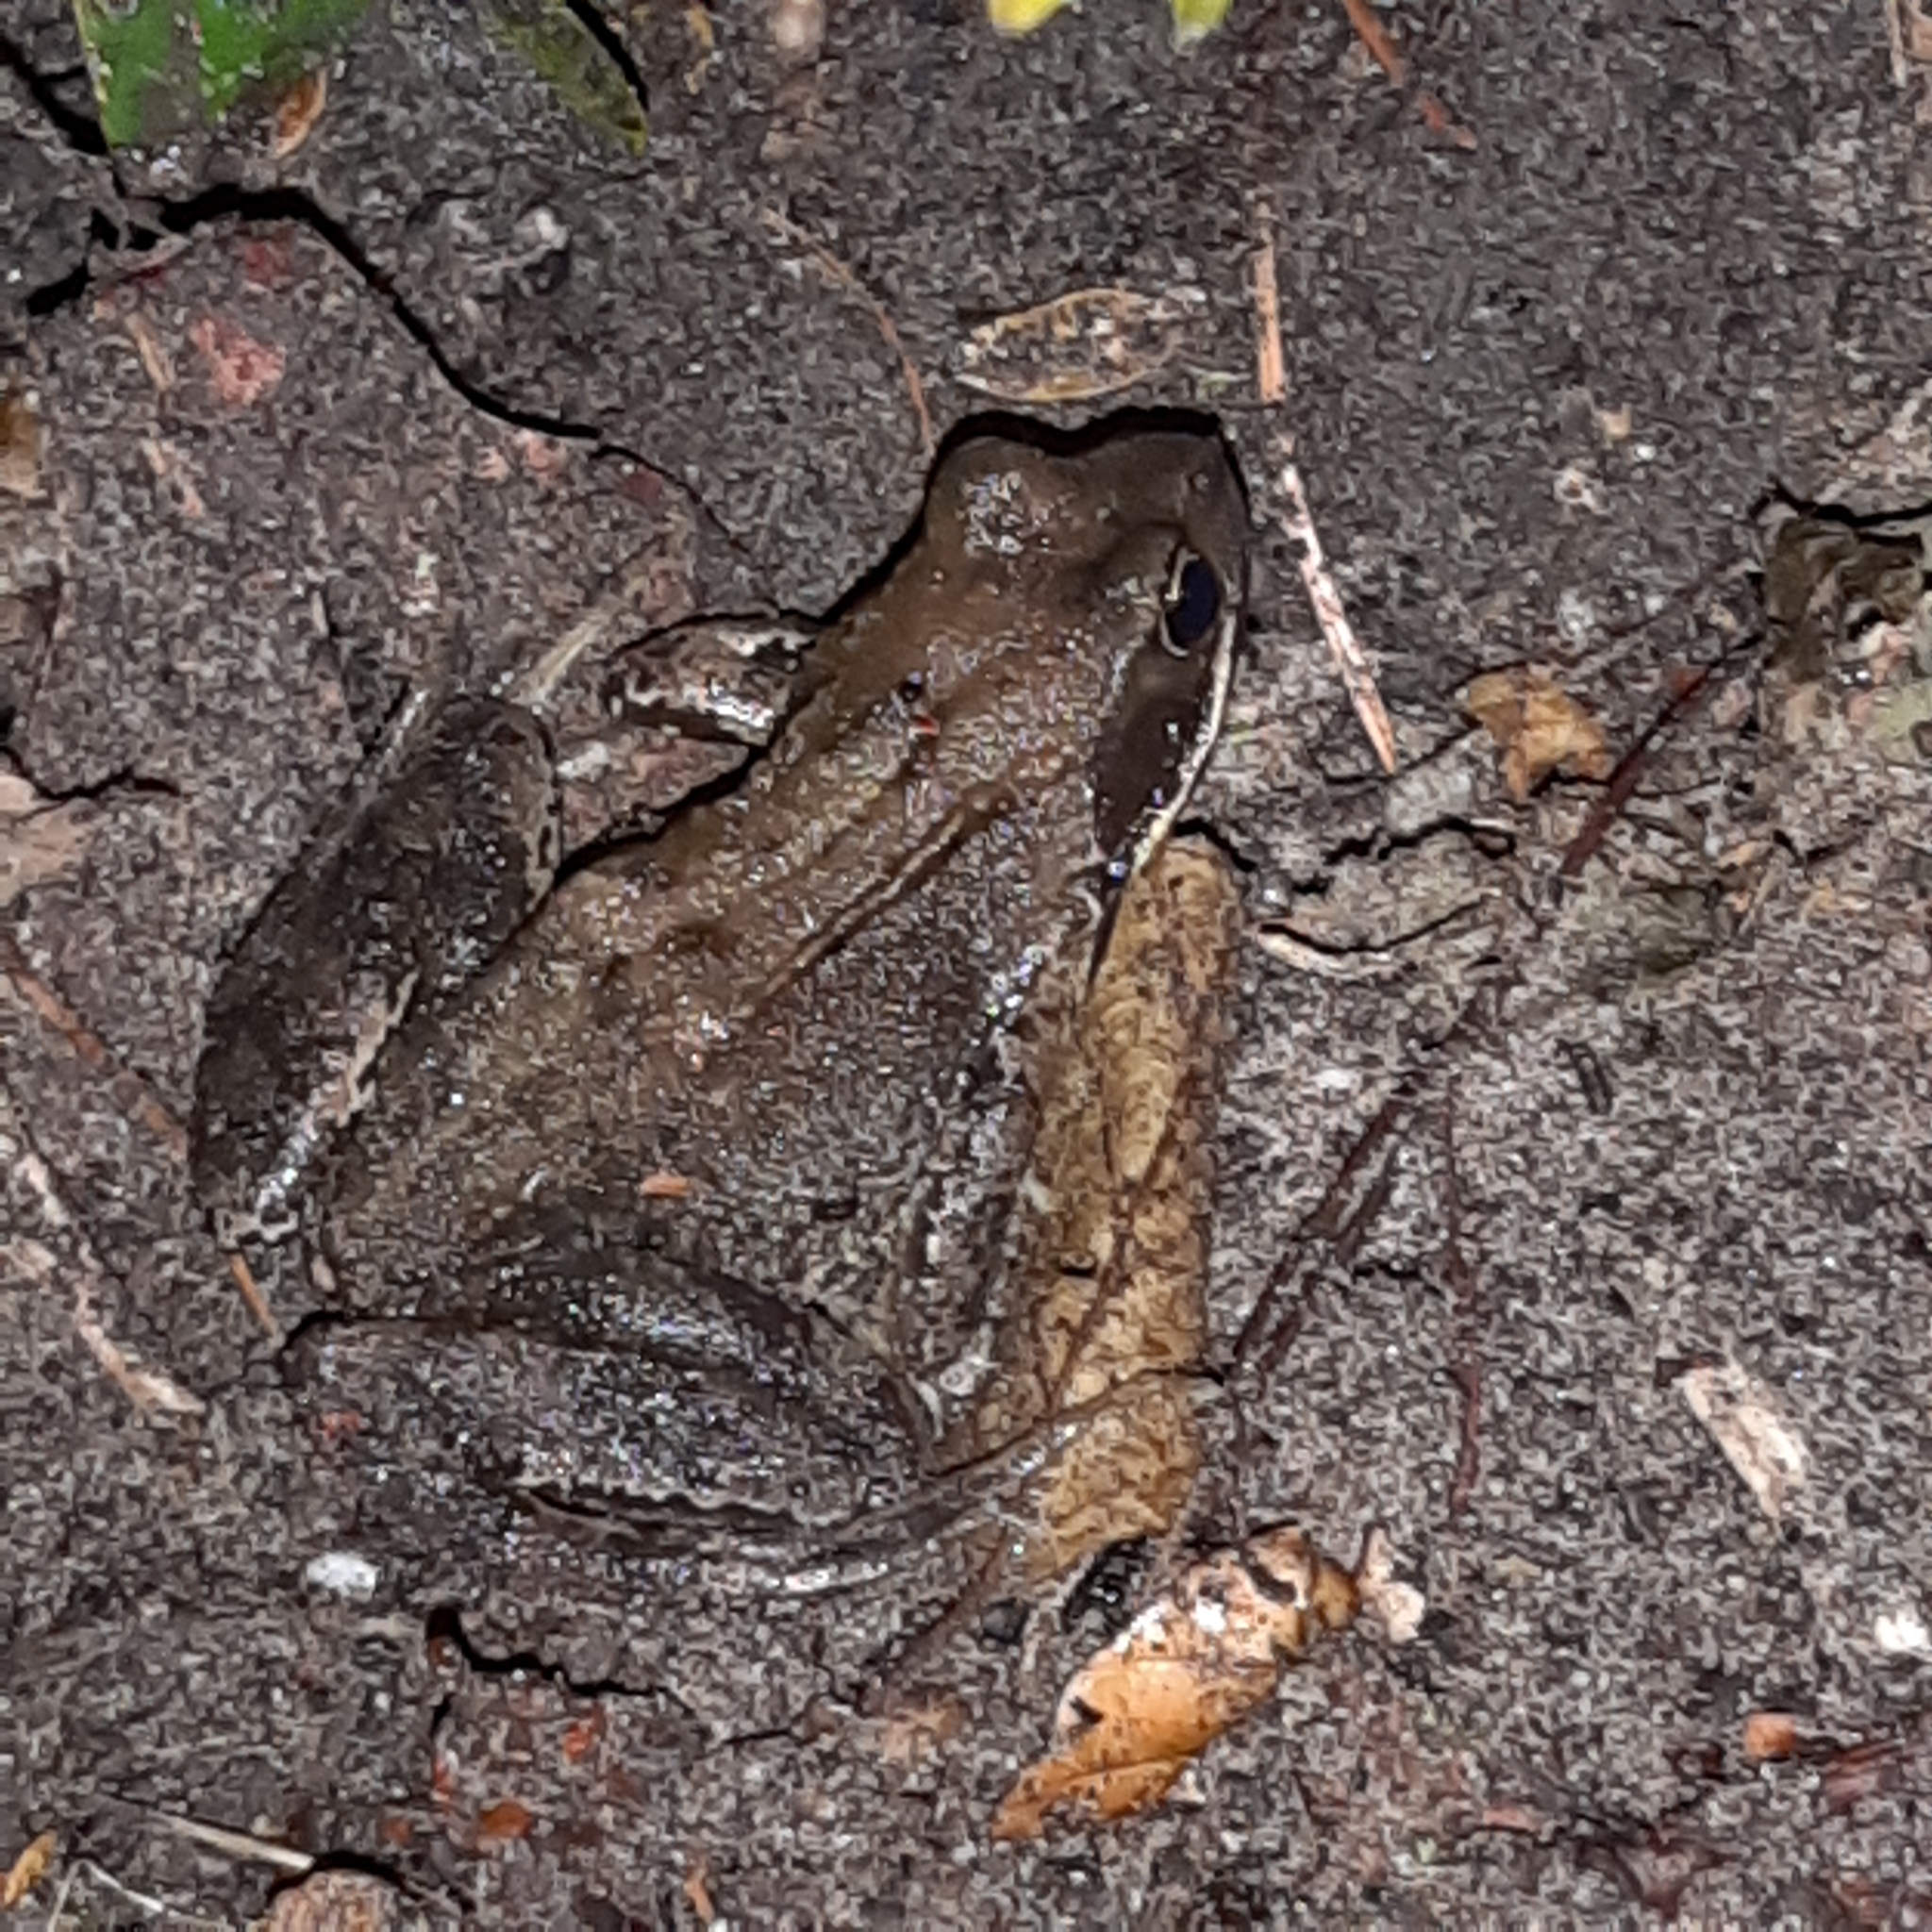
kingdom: Animalia
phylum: Chordata
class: Amphibia
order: Anura
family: Ranidae
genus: Rana
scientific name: Rana temporaria
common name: Common frog
